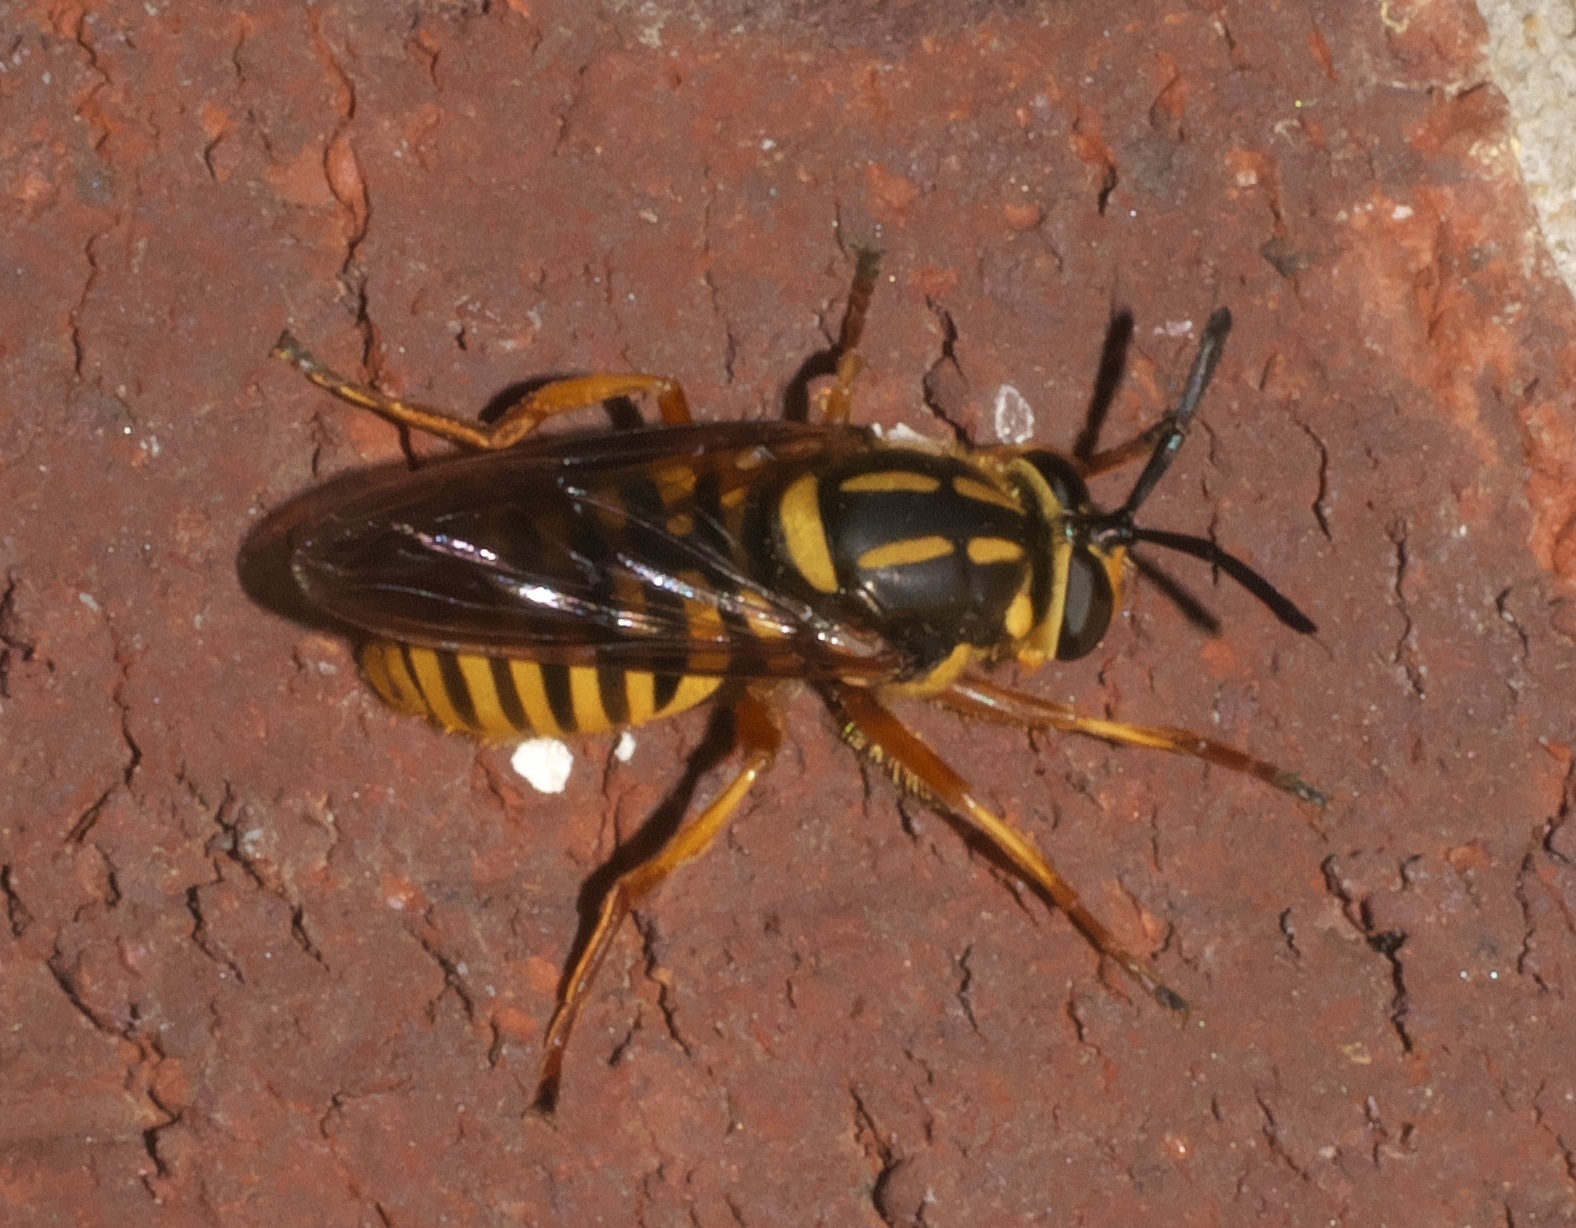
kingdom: Animalia
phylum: Arthropoda
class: Insecta
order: Diptera
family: Syrphidae
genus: Sphecomyia
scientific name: Sphecomyia vittata
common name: Long-horned yellowjacket fly
